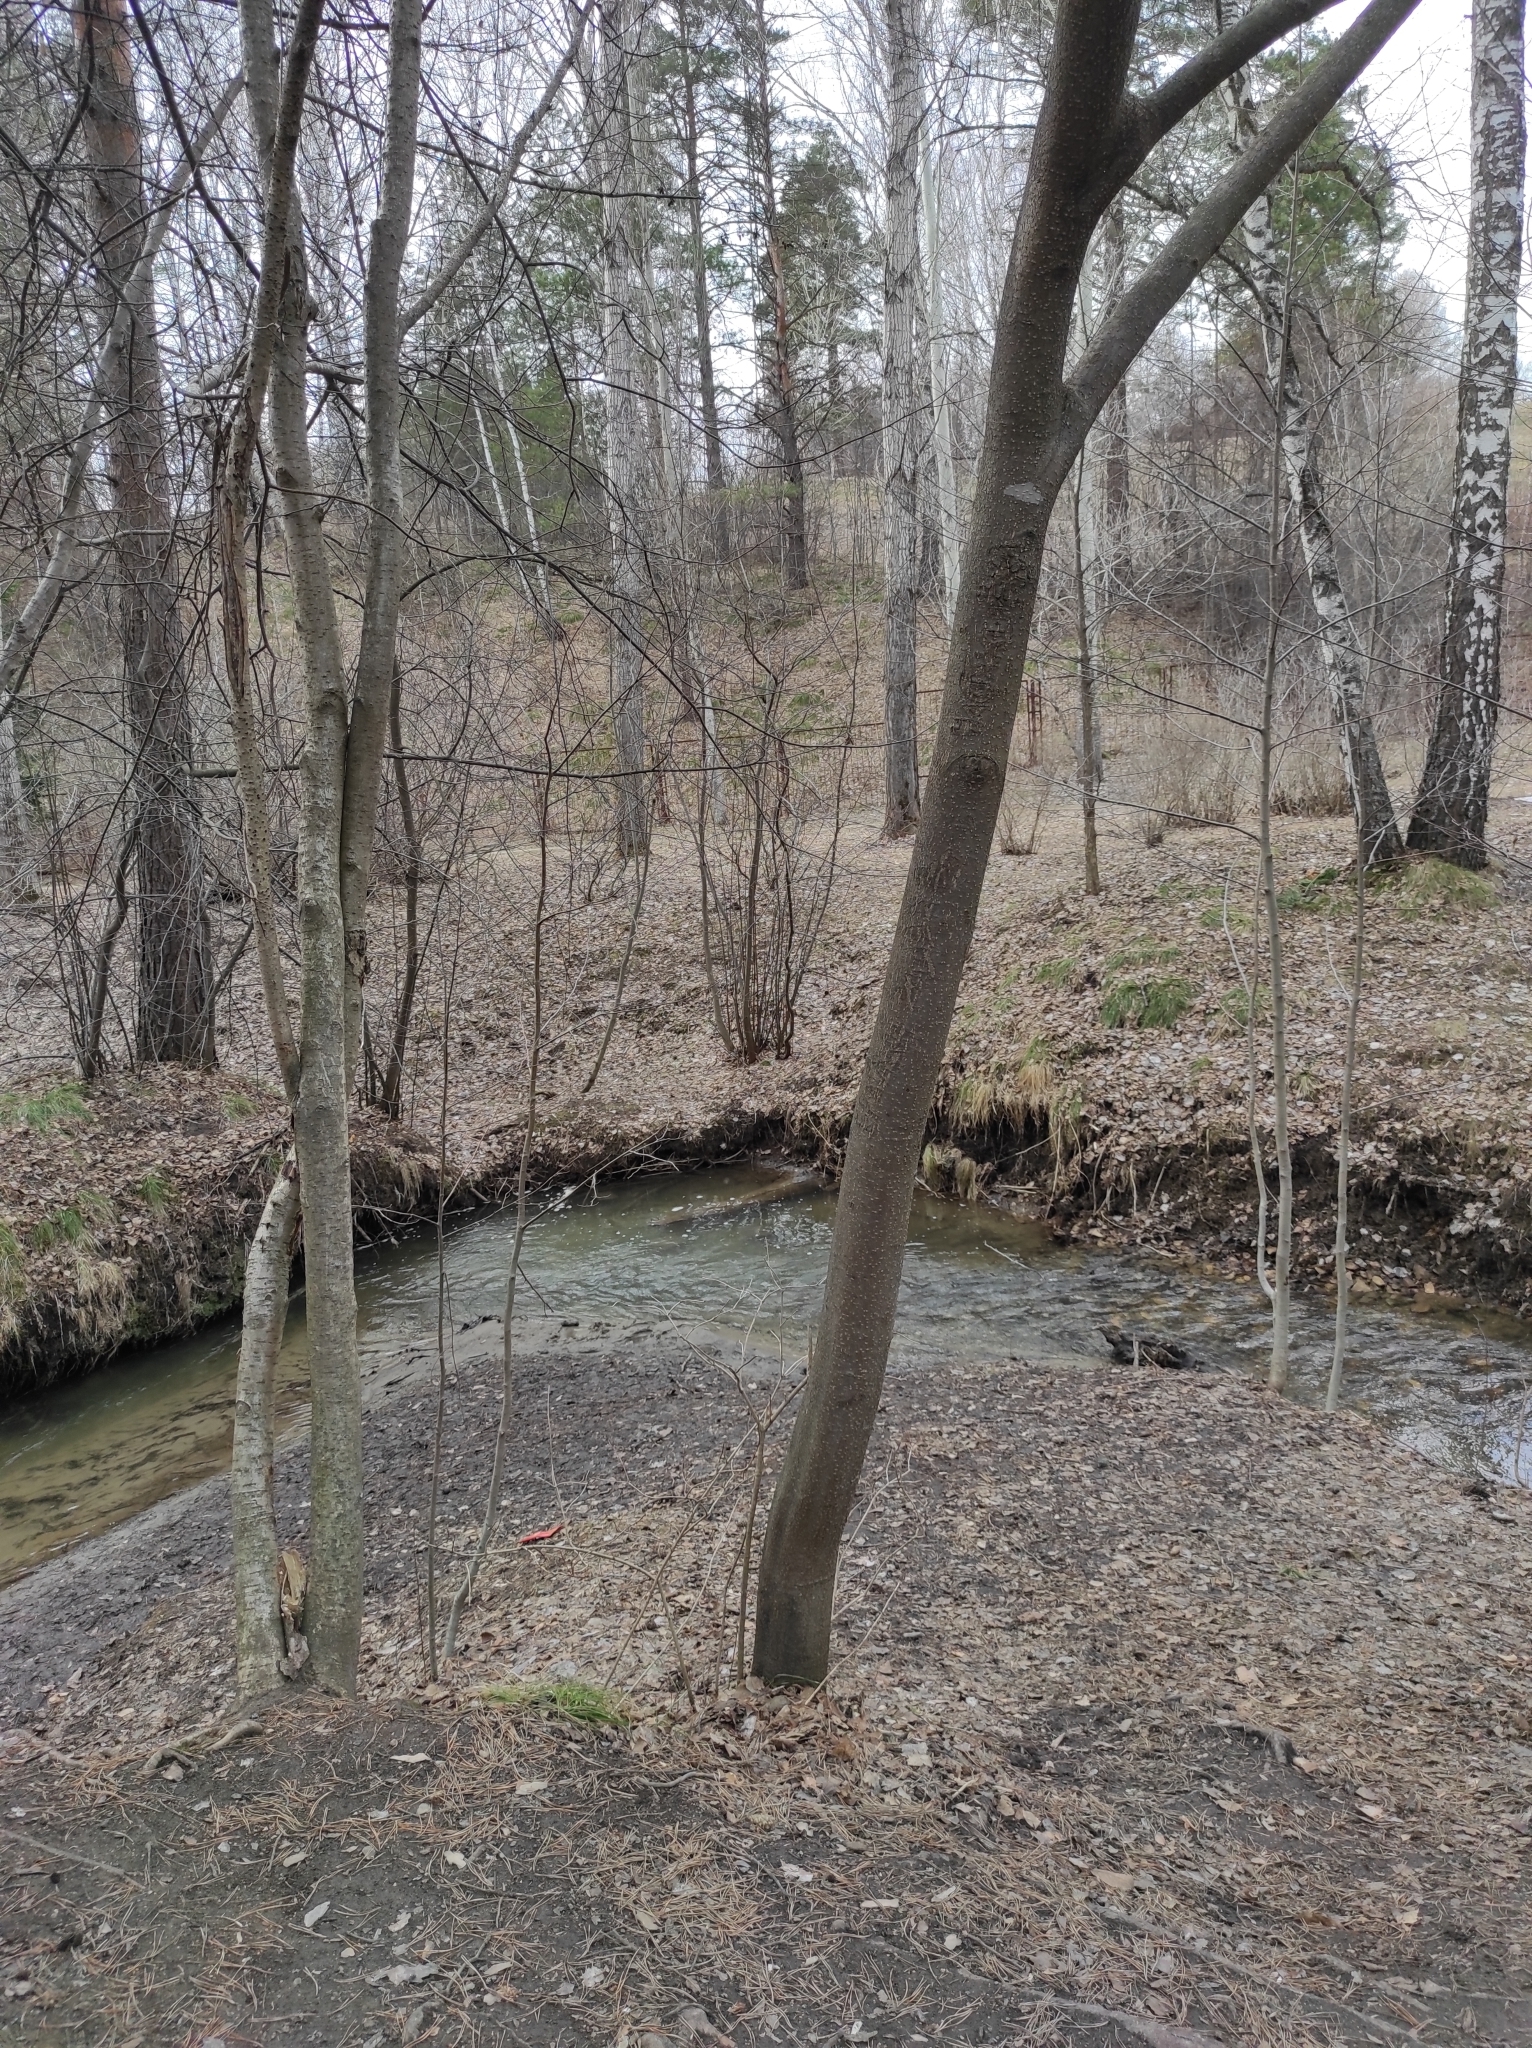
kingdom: Plantae
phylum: Tracheophyta
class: Magnoliopsida
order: Rosales
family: Rosaceae
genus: Prunus
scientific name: Prunus padus
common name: Bird cherry
